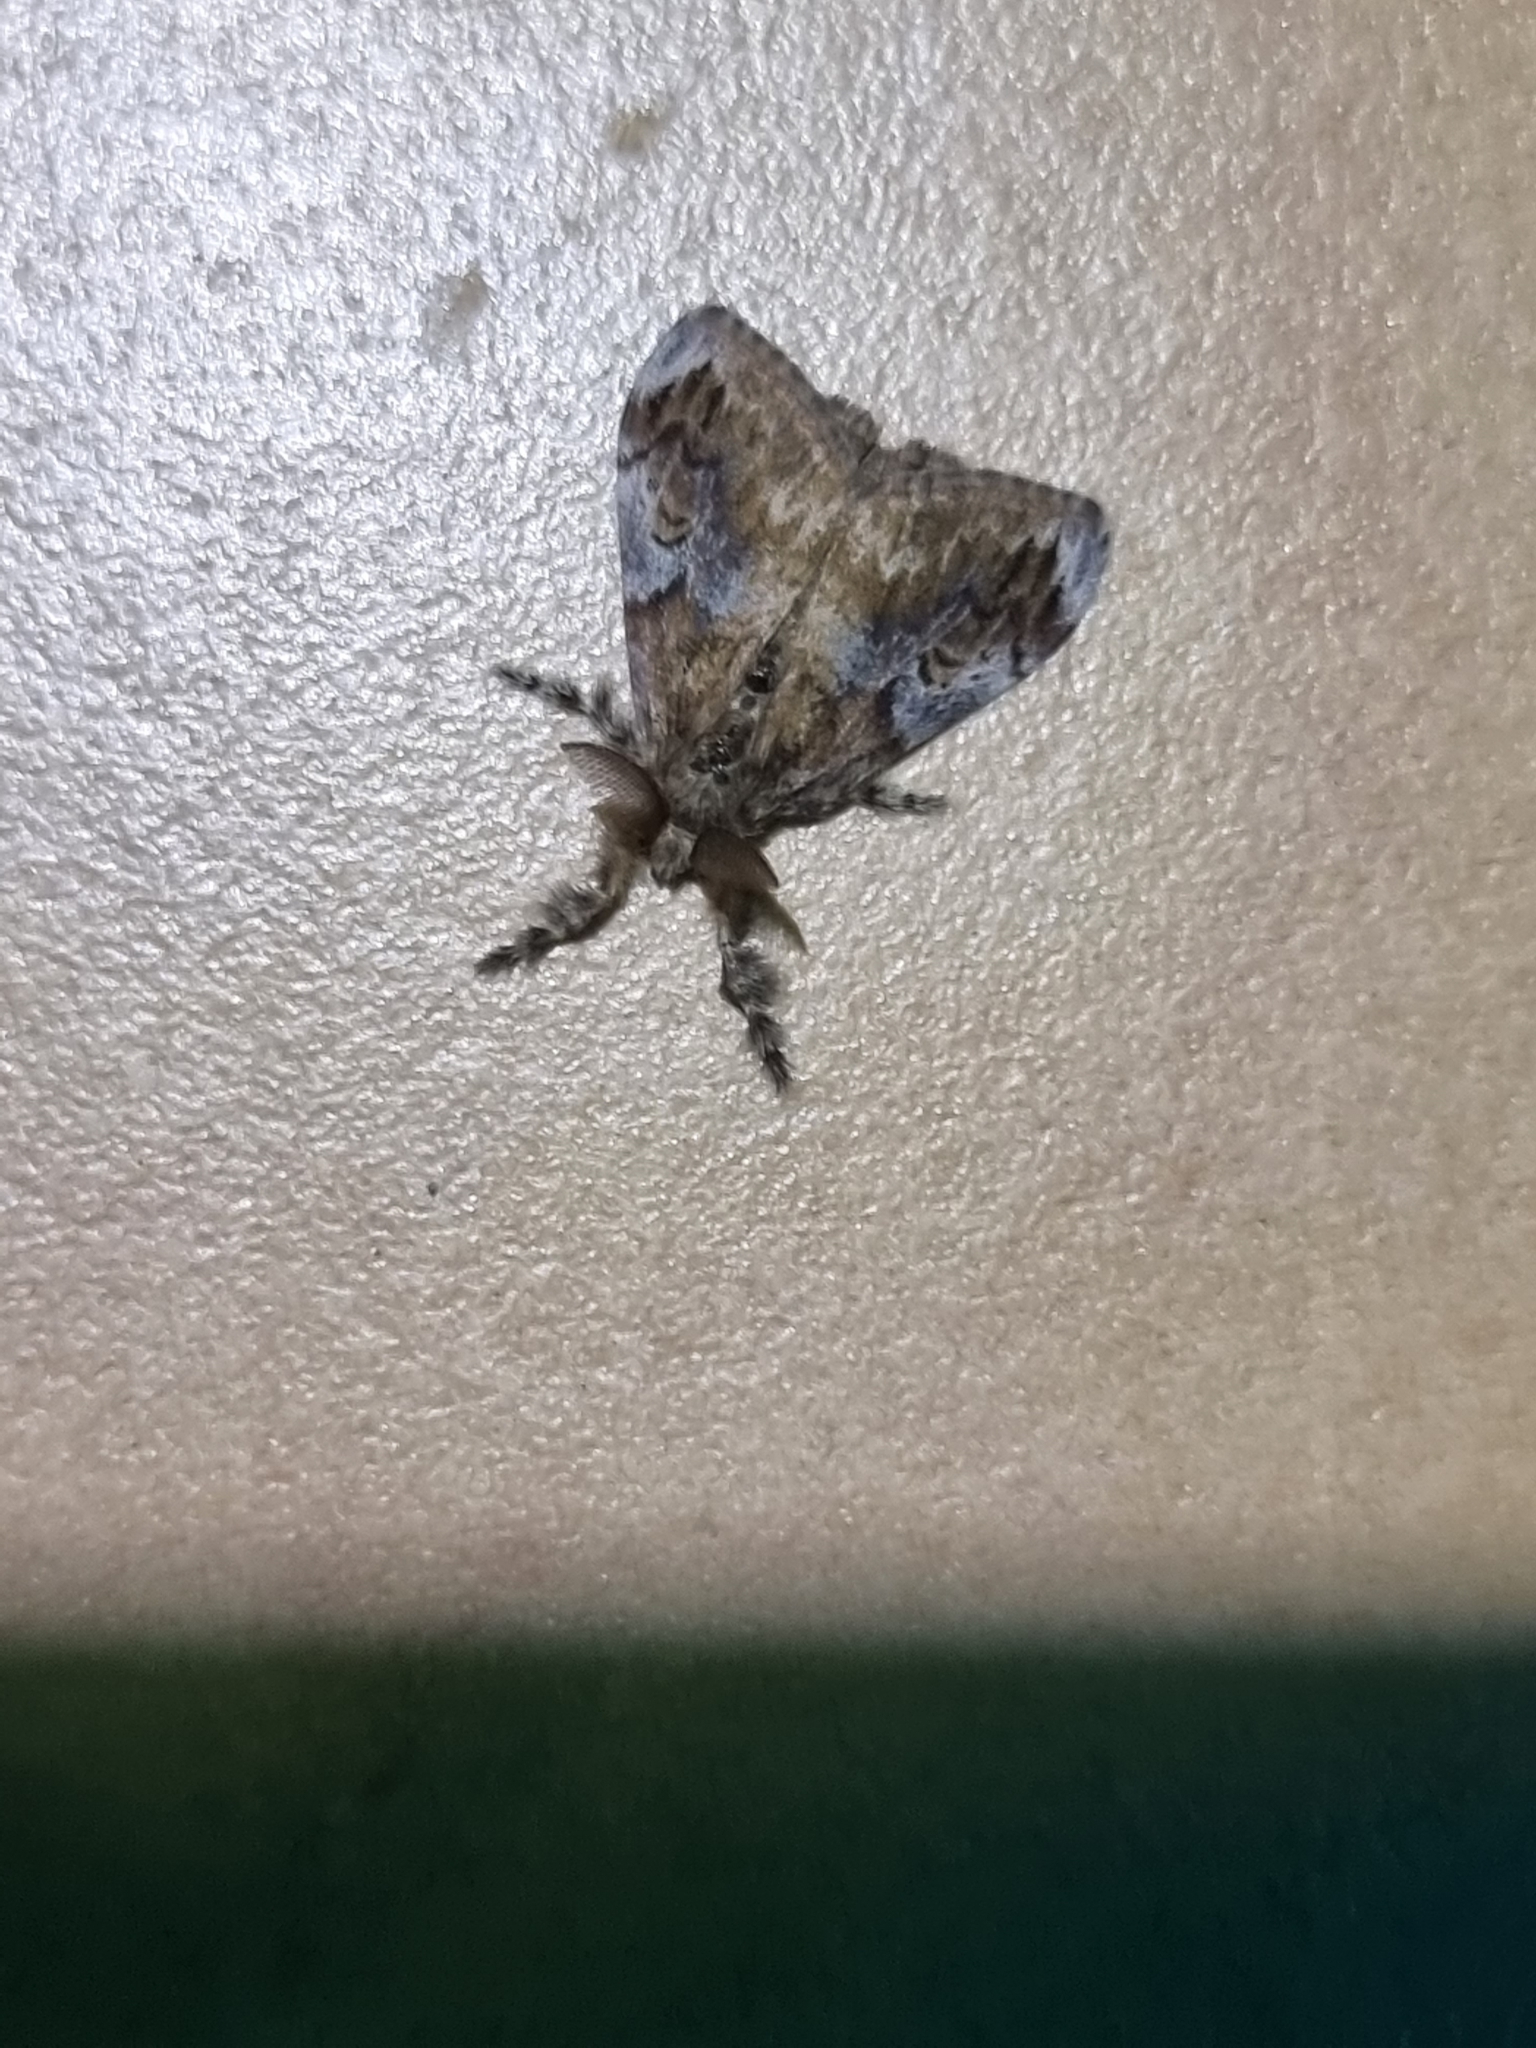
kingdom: Animalia
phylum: Arthropoda
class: Insecta
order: Lepidoptera
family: Erebidae
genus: Orgyia
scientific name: Orgyia australis
